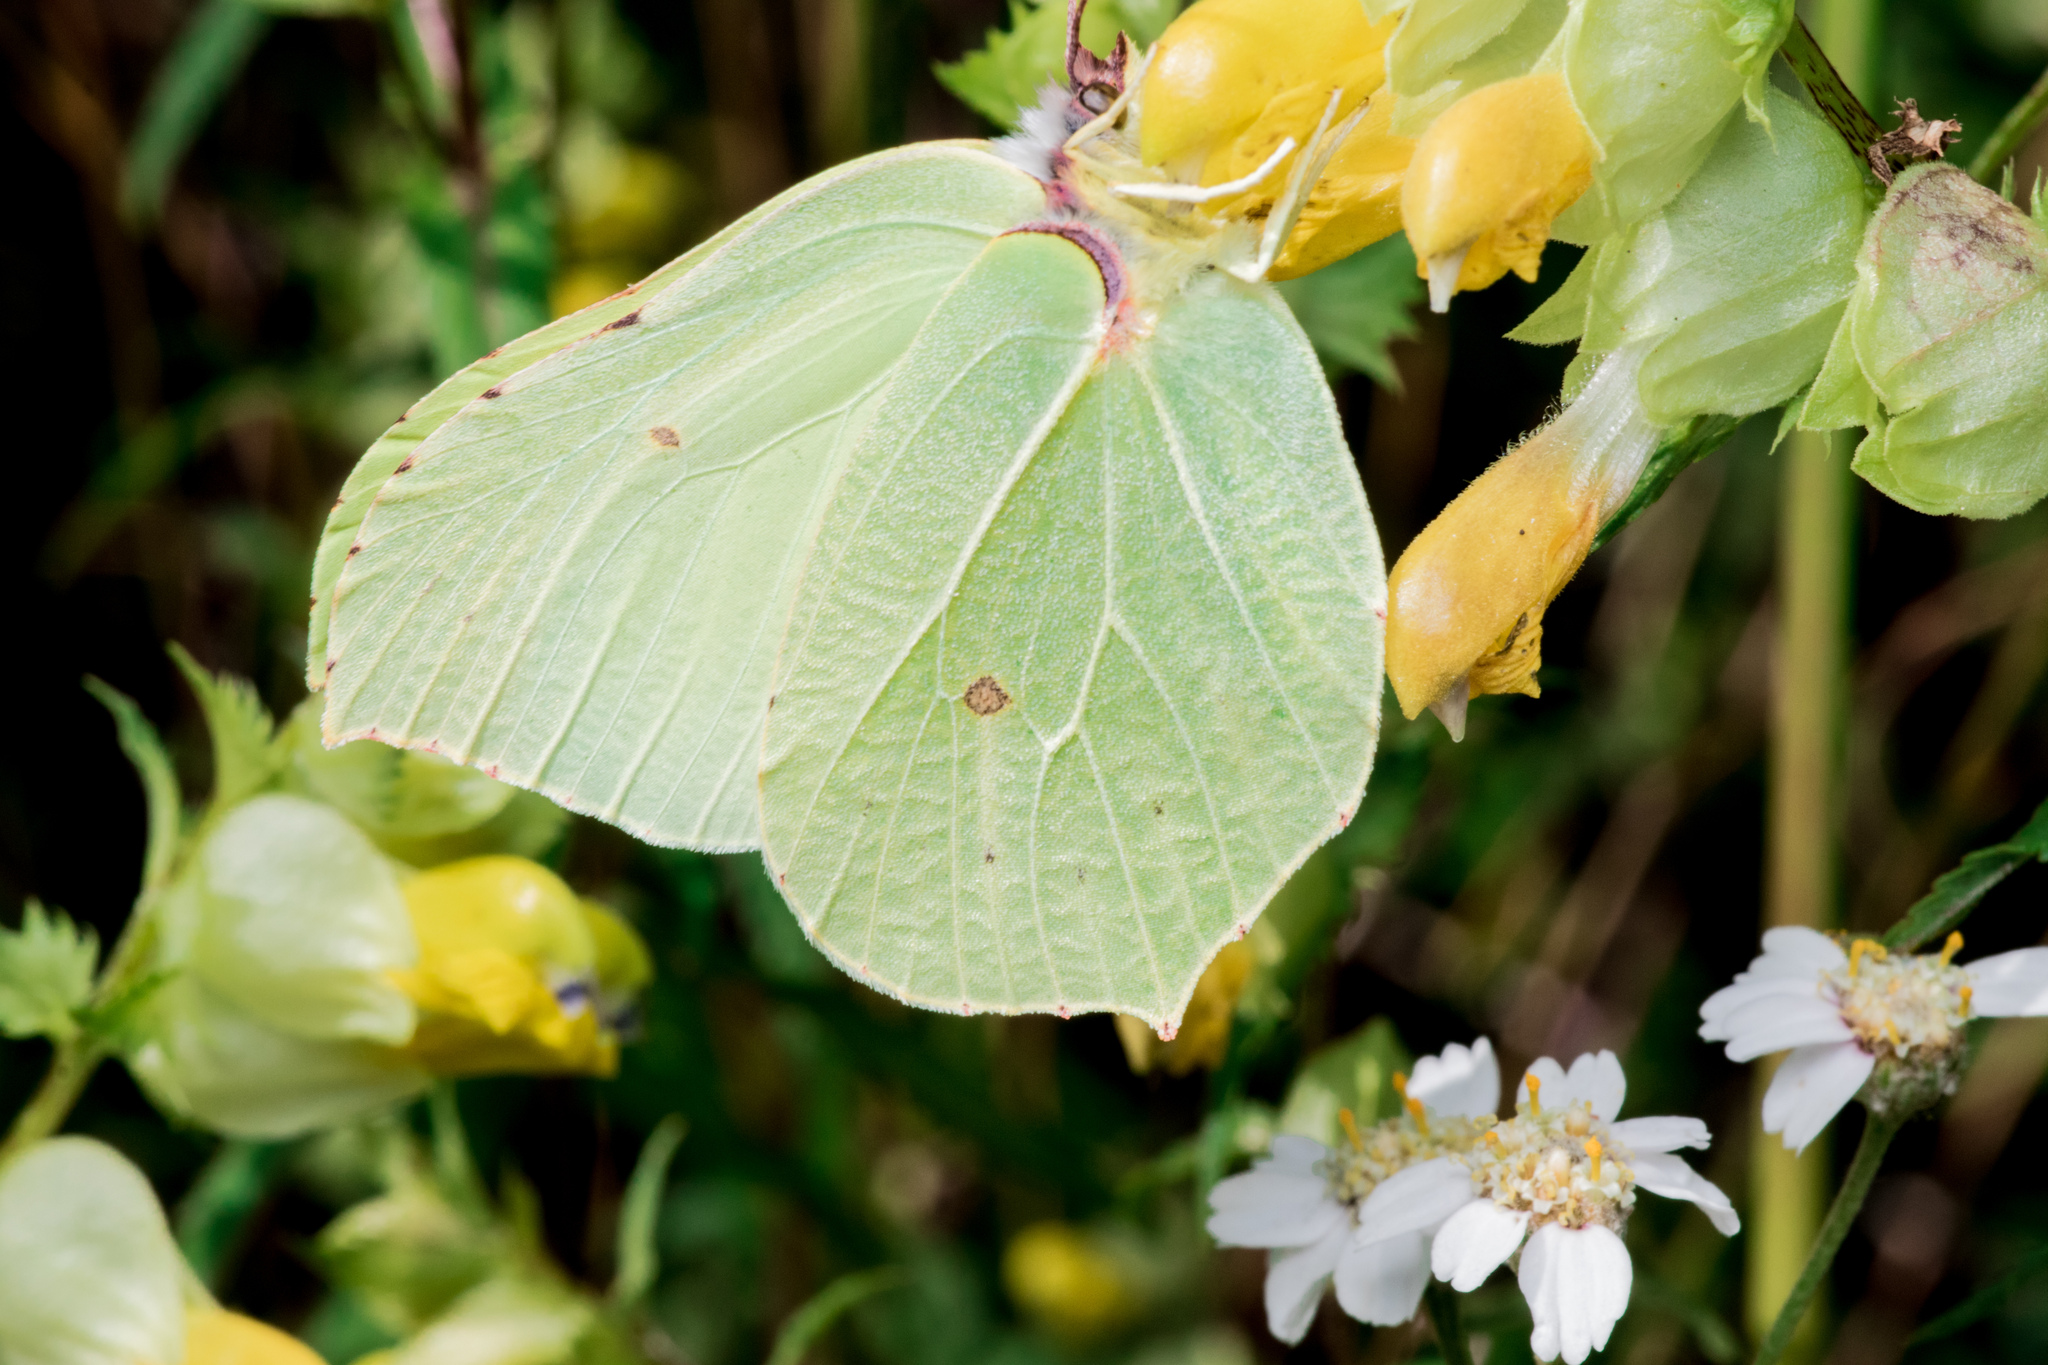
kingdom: Animalia
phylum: Arthropoda
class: Insecta
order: Lepidoptera
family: Pieridae
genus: Gonepteryx
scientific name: Gonepteryx rhamni
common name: Brimstone
